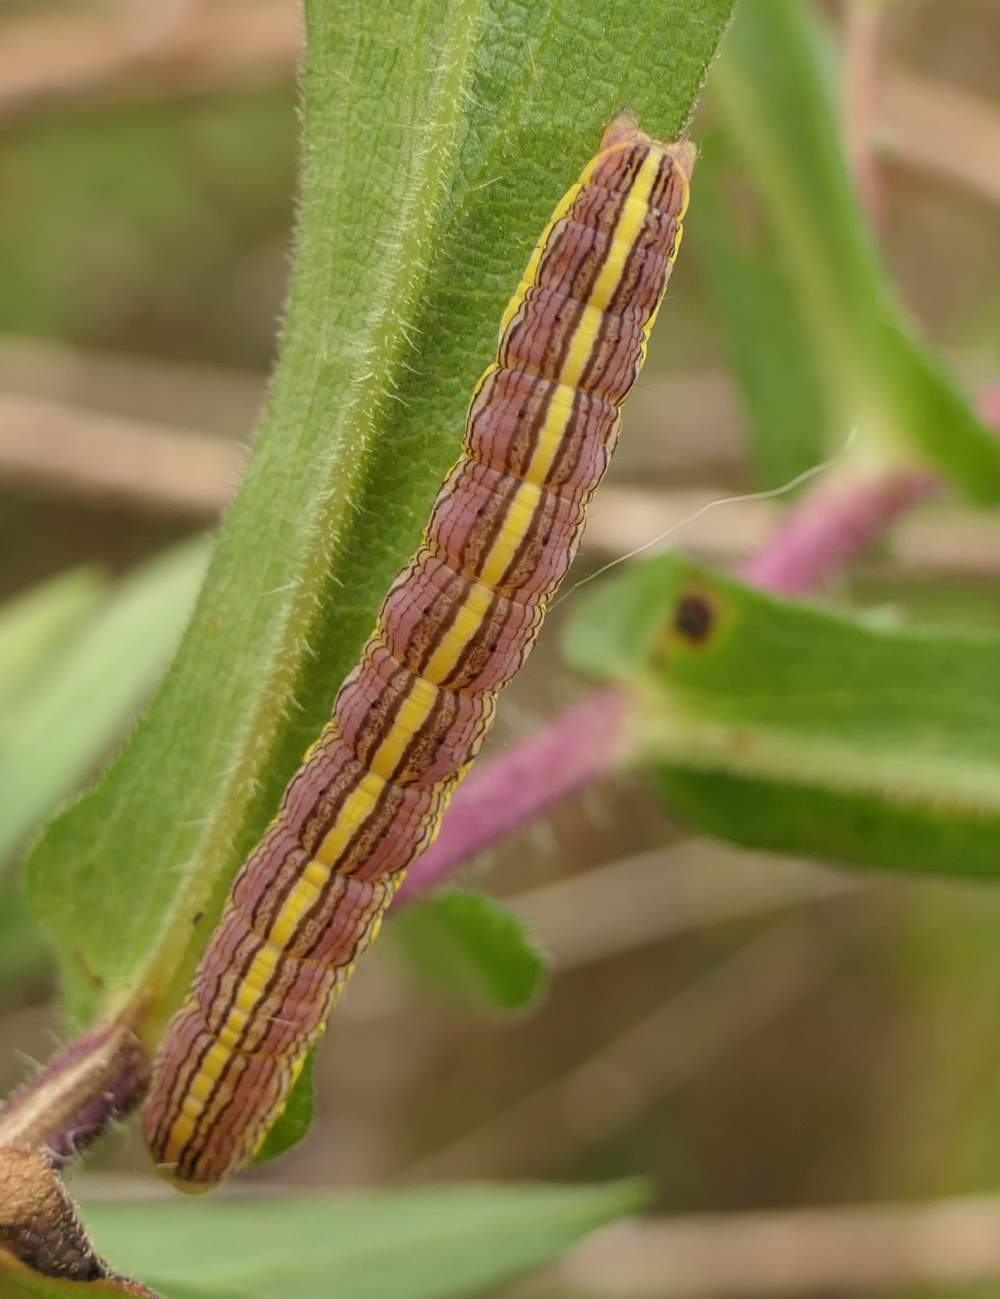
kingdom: Animalia
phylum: Arthropoda
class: Insecta
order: Lepidoptera
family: Noctuidae
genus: Cucullia
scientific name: Cucullia asteroides
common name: Asteroid moth
